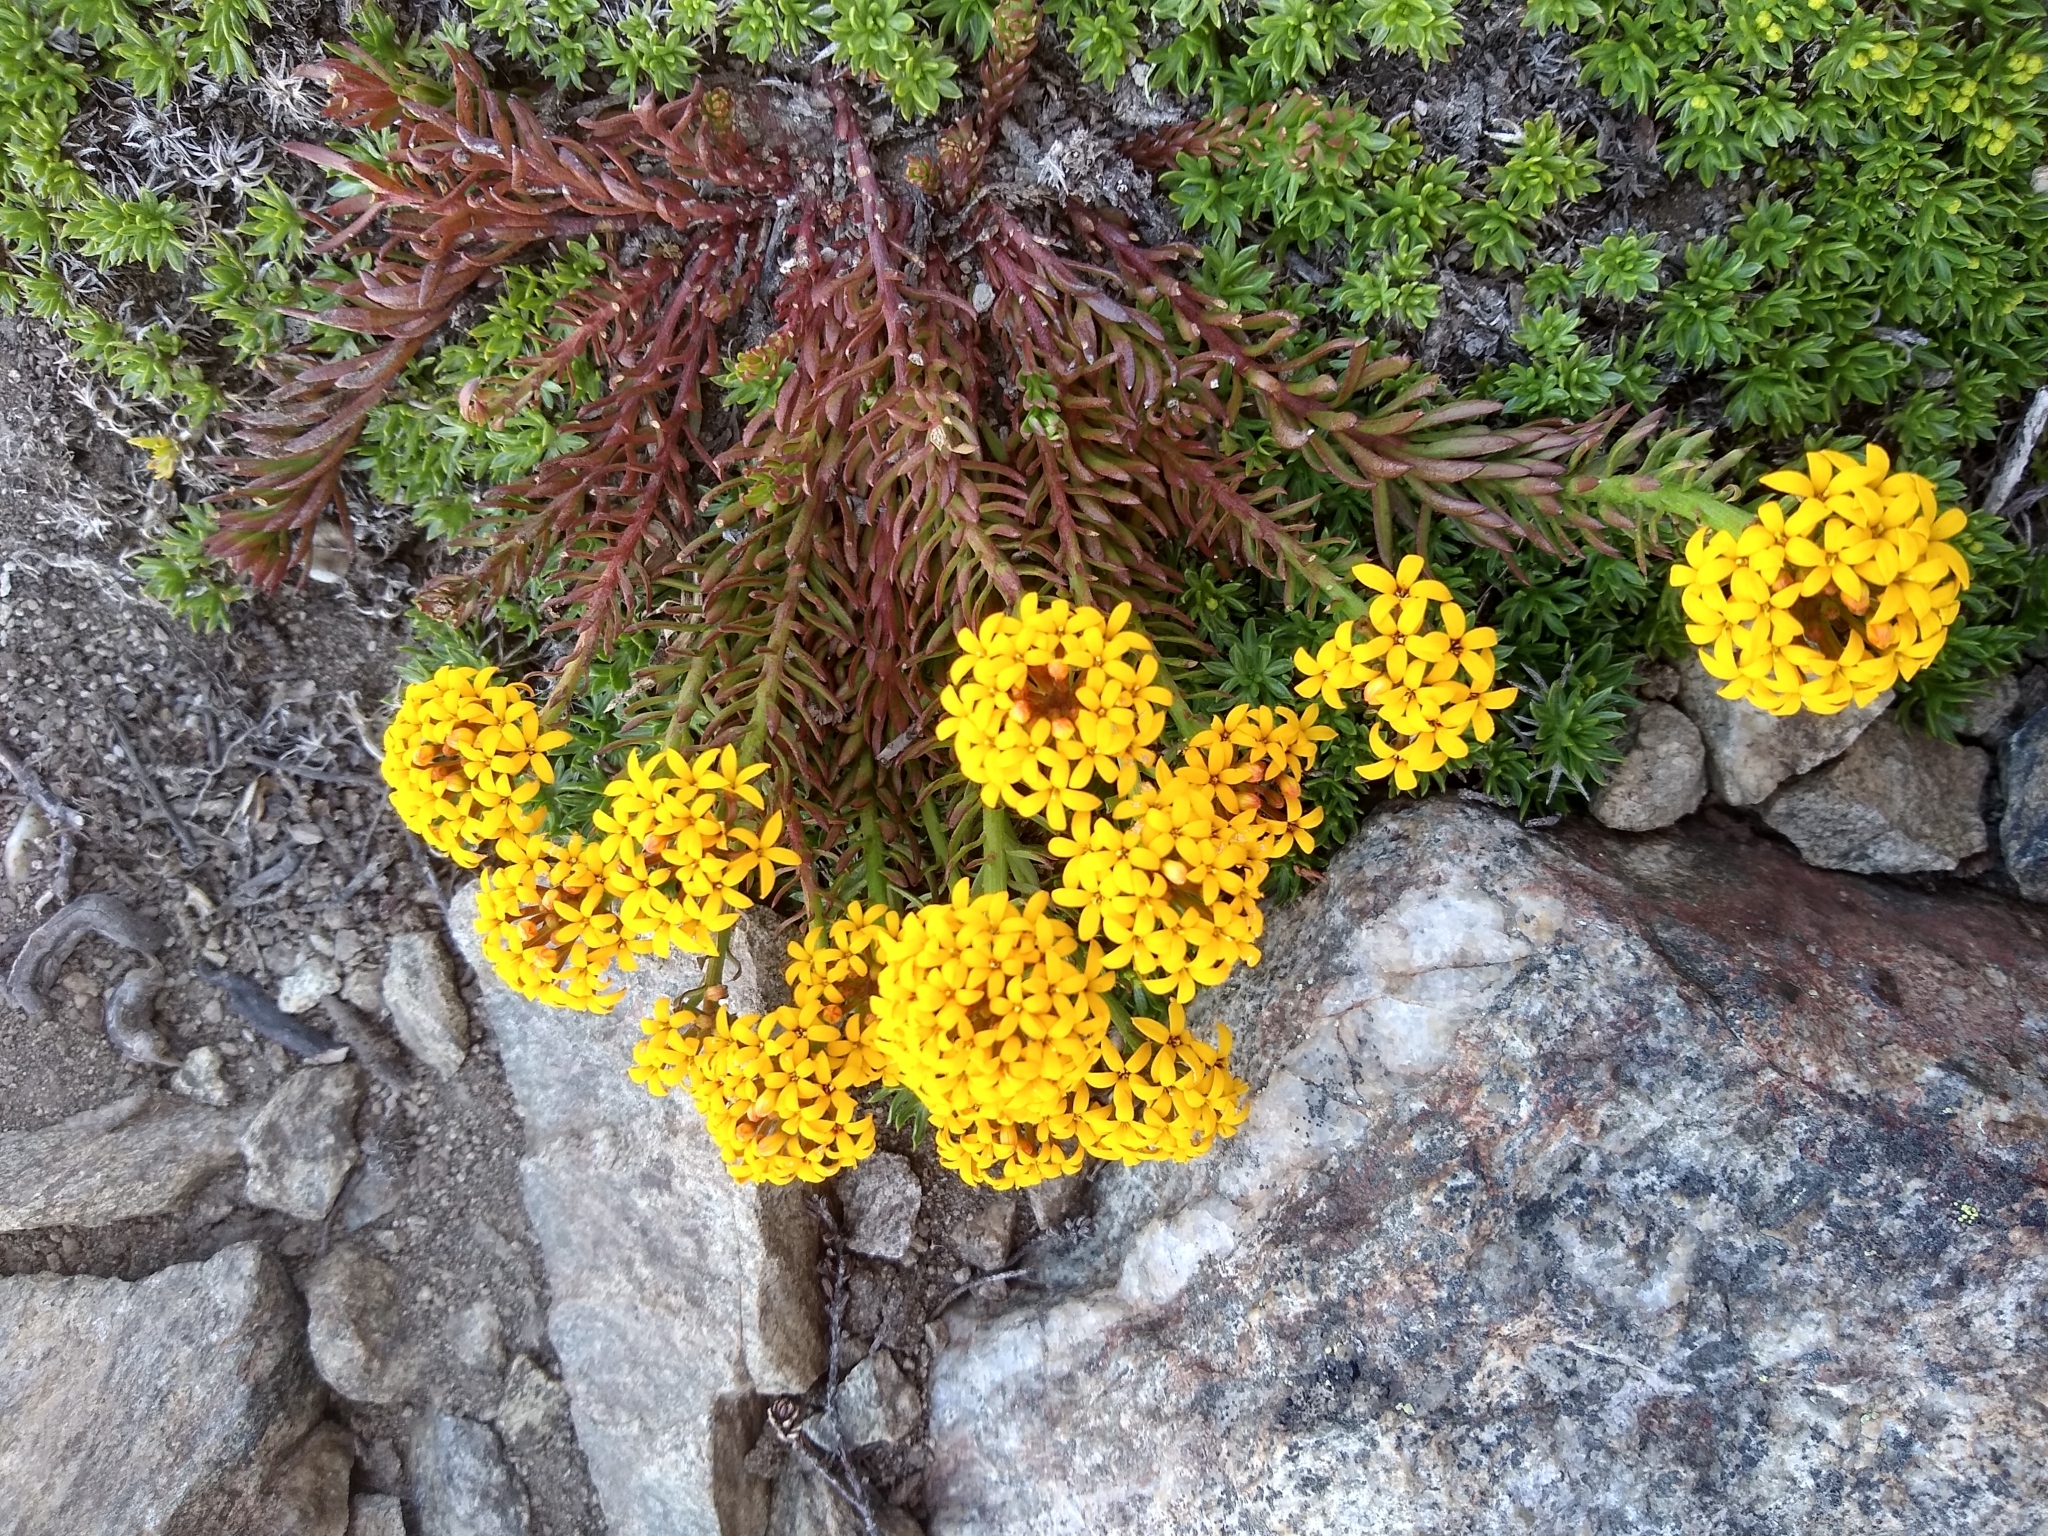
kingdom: Plantae
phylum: Tracheophyta
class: Magnoliopsida
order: Santalales
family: Schoepfiaceae
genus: Quinchamalium
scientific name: Quinchamalium chilense
